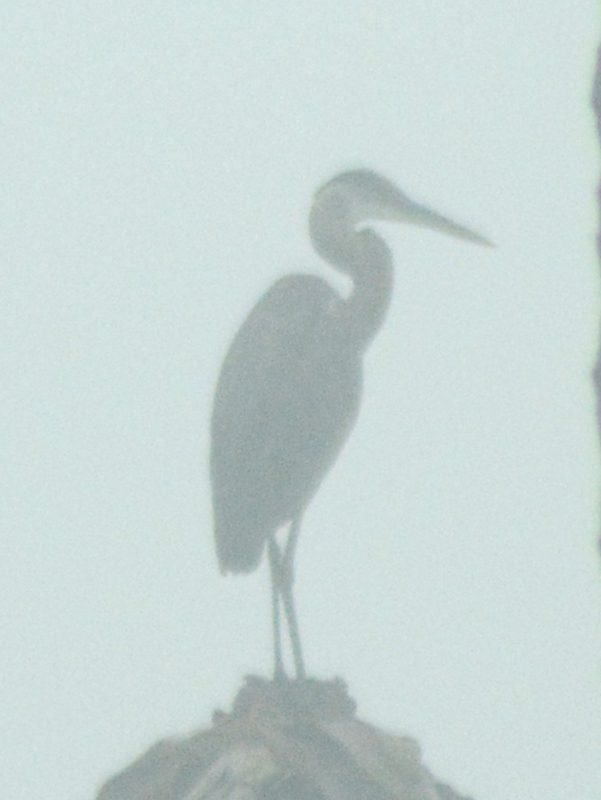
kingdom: Animalia
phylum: Chordata
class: Aves
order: Pelecaniformes
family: Ardeidae
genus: Ardea
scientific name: Ardea herodias
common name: Great blue heron
